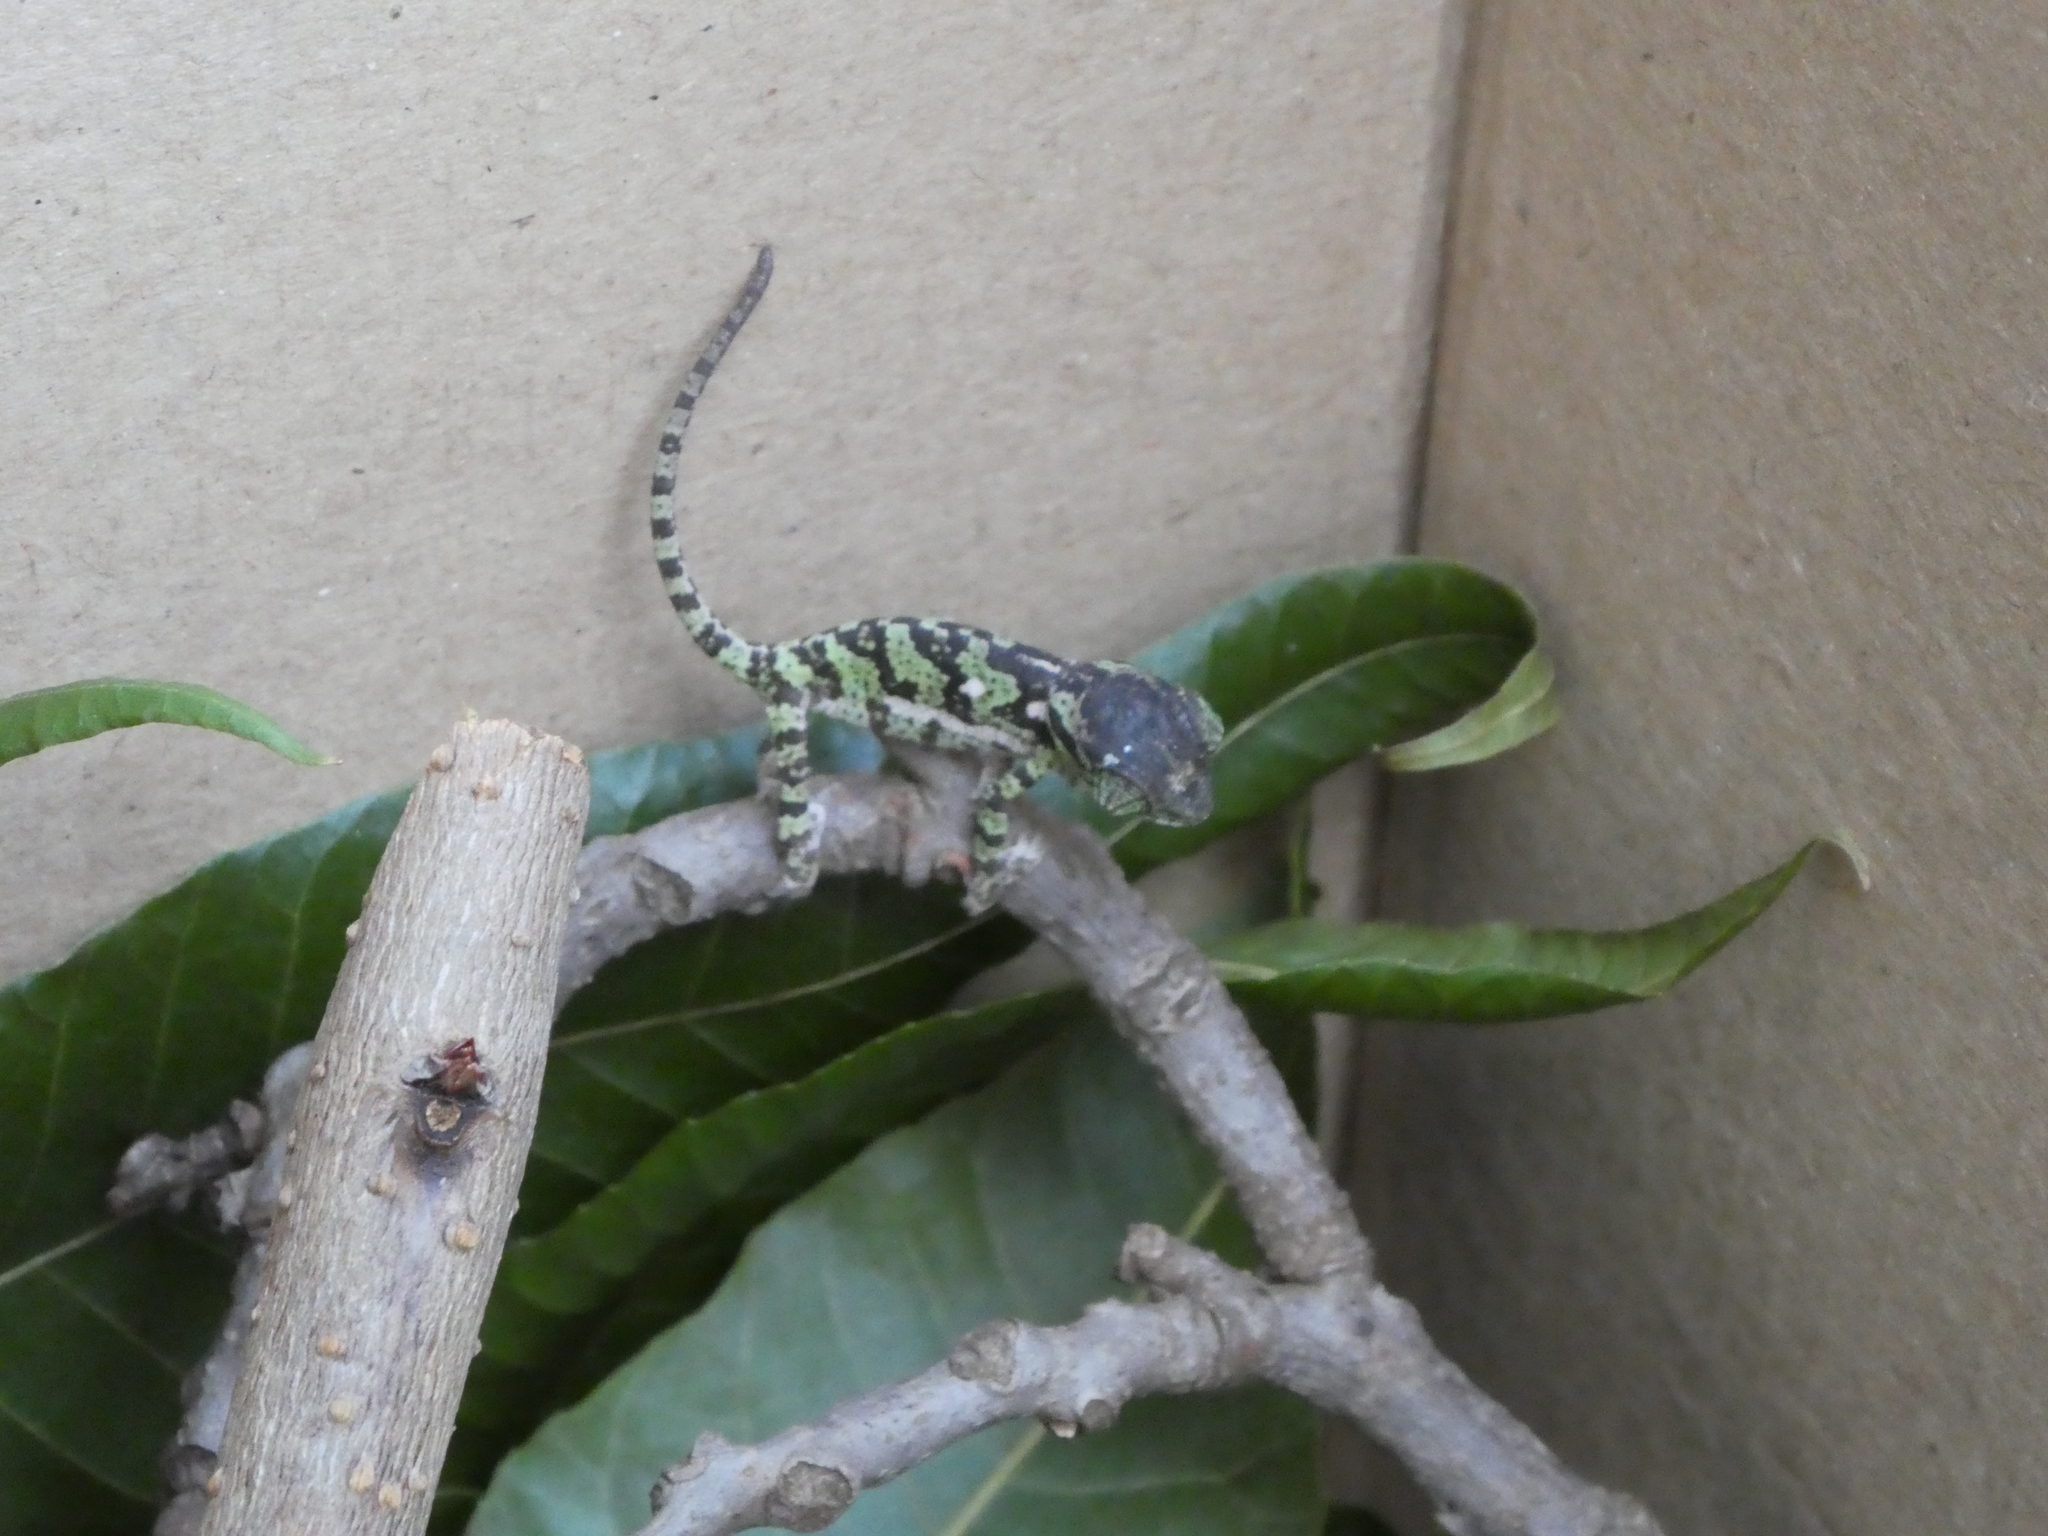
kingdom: Animalia
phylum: Chordata
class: Squamata
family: Chamaeleonidae
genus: Chamaeleo
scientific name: Chamaeleo dilepis
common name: Flapneck chameleon
